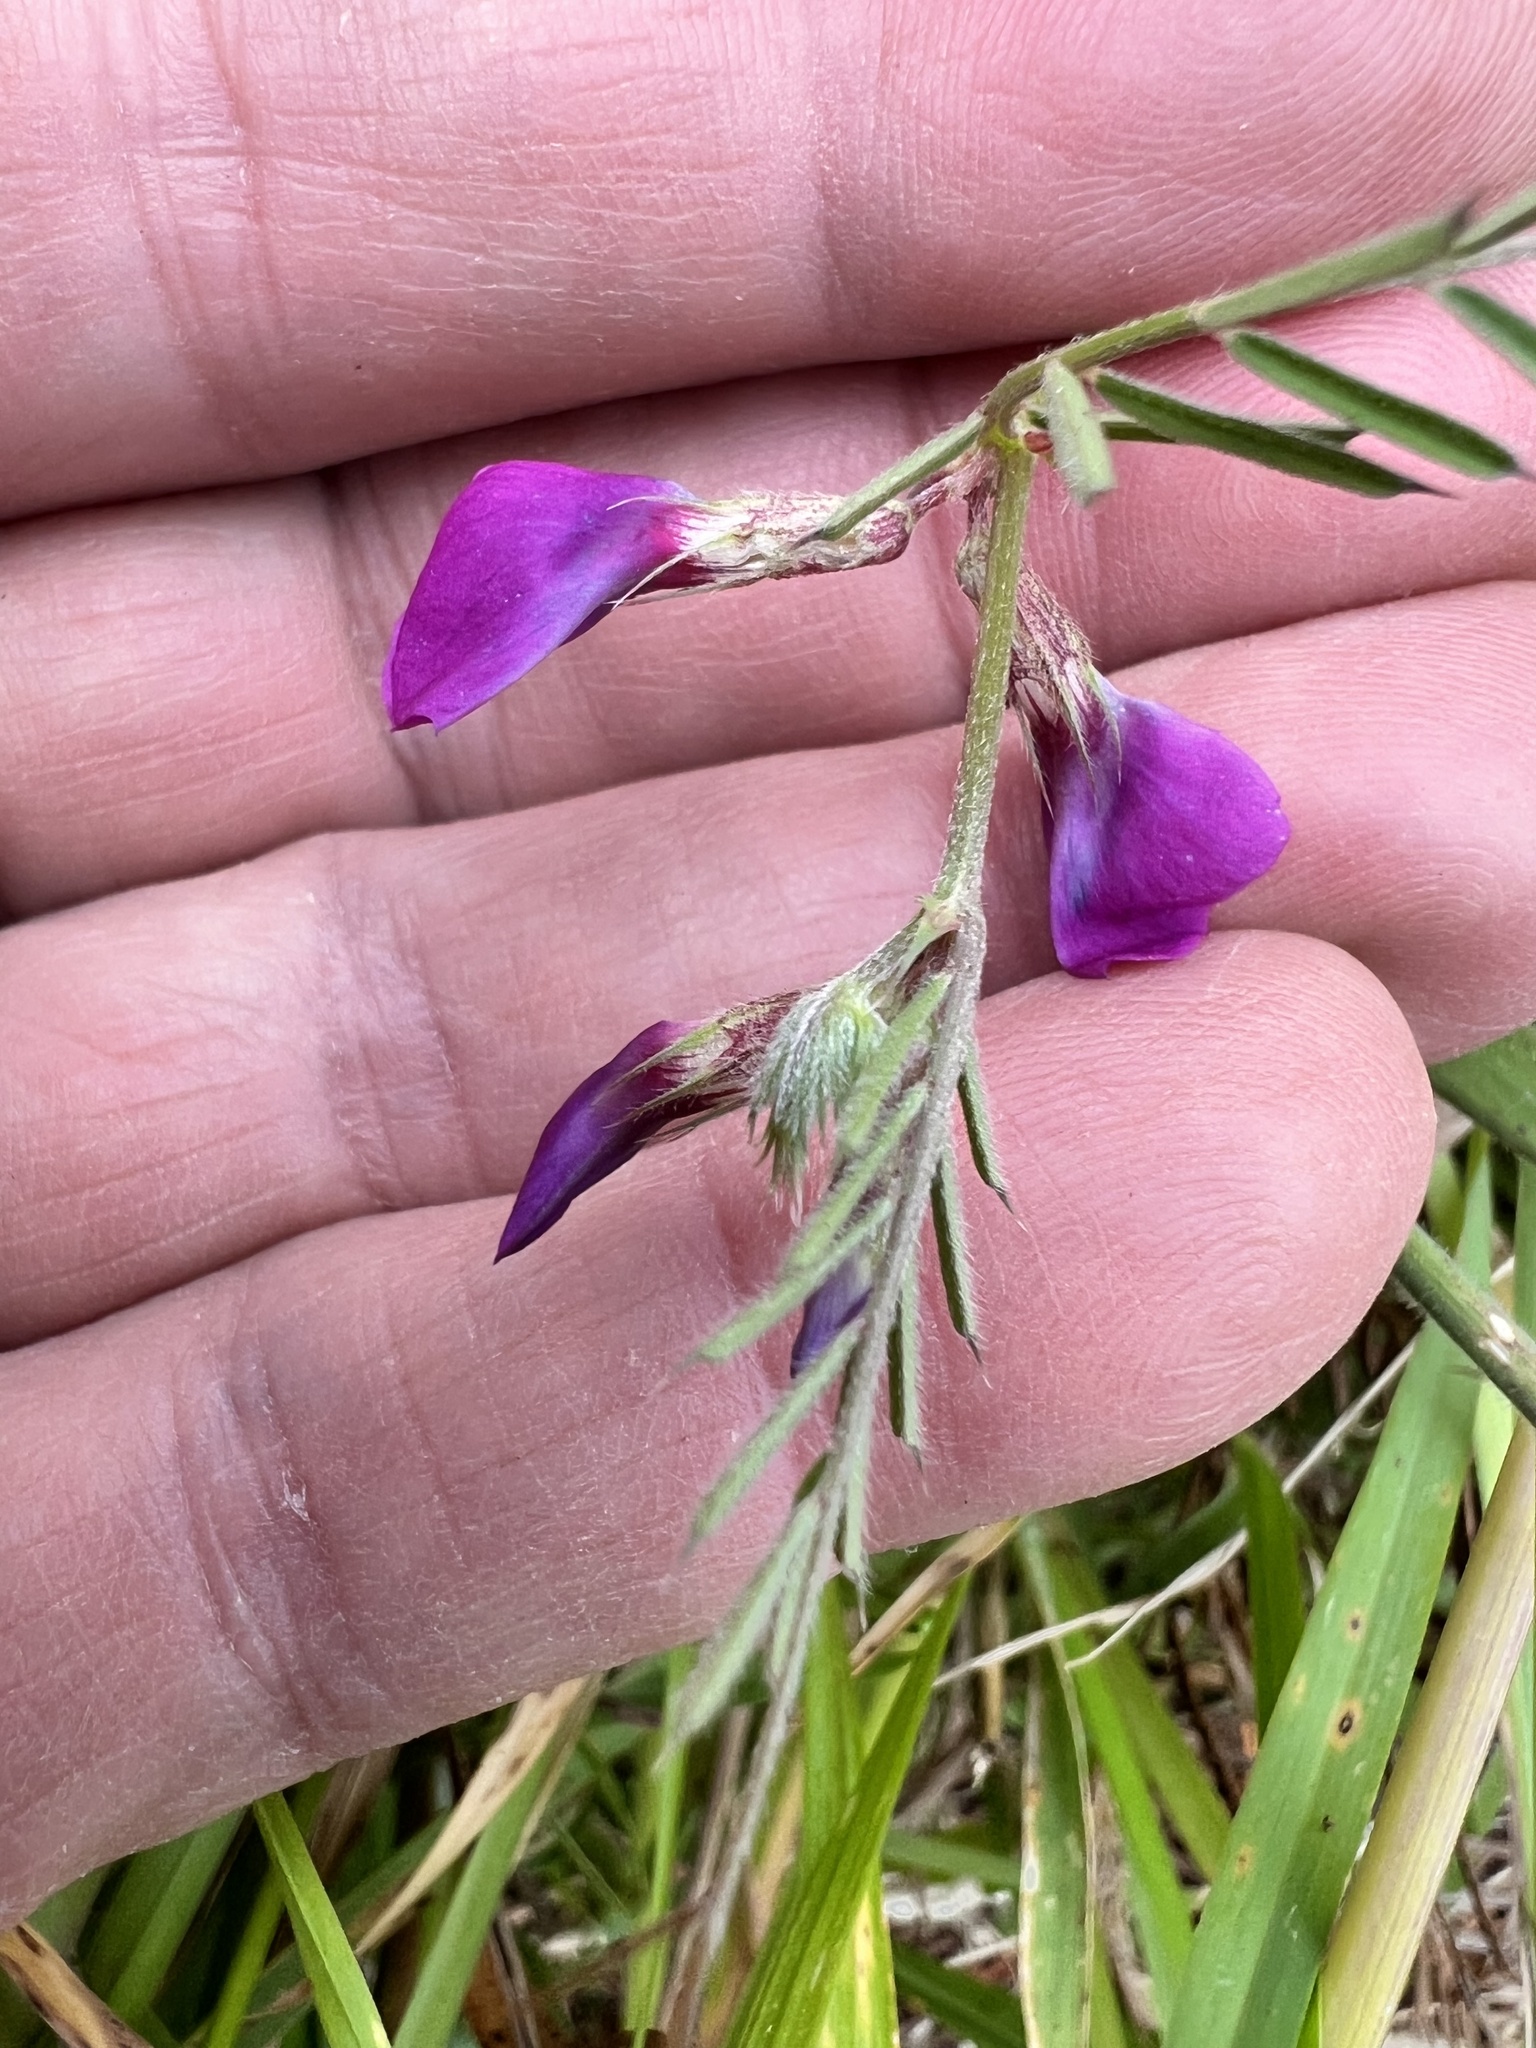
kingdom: Plantae
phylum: Tracheophyta
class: Magnoliopsida
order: Fabales
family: Fabaceae
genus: Vicia
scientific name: Vicia sativa
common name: Garden vetch
